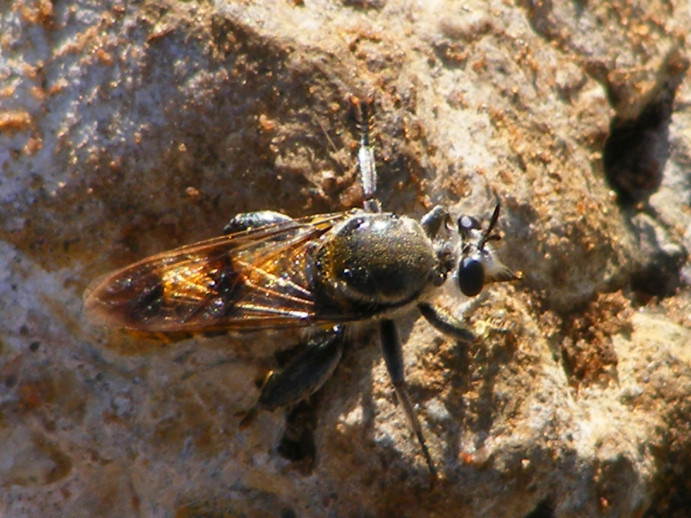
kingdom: Animalia
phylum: Arthropoda
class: Insecta
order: Diptera
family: Asilidae
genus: Hoplistomerus
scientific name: Hoplistomerus nobilis
